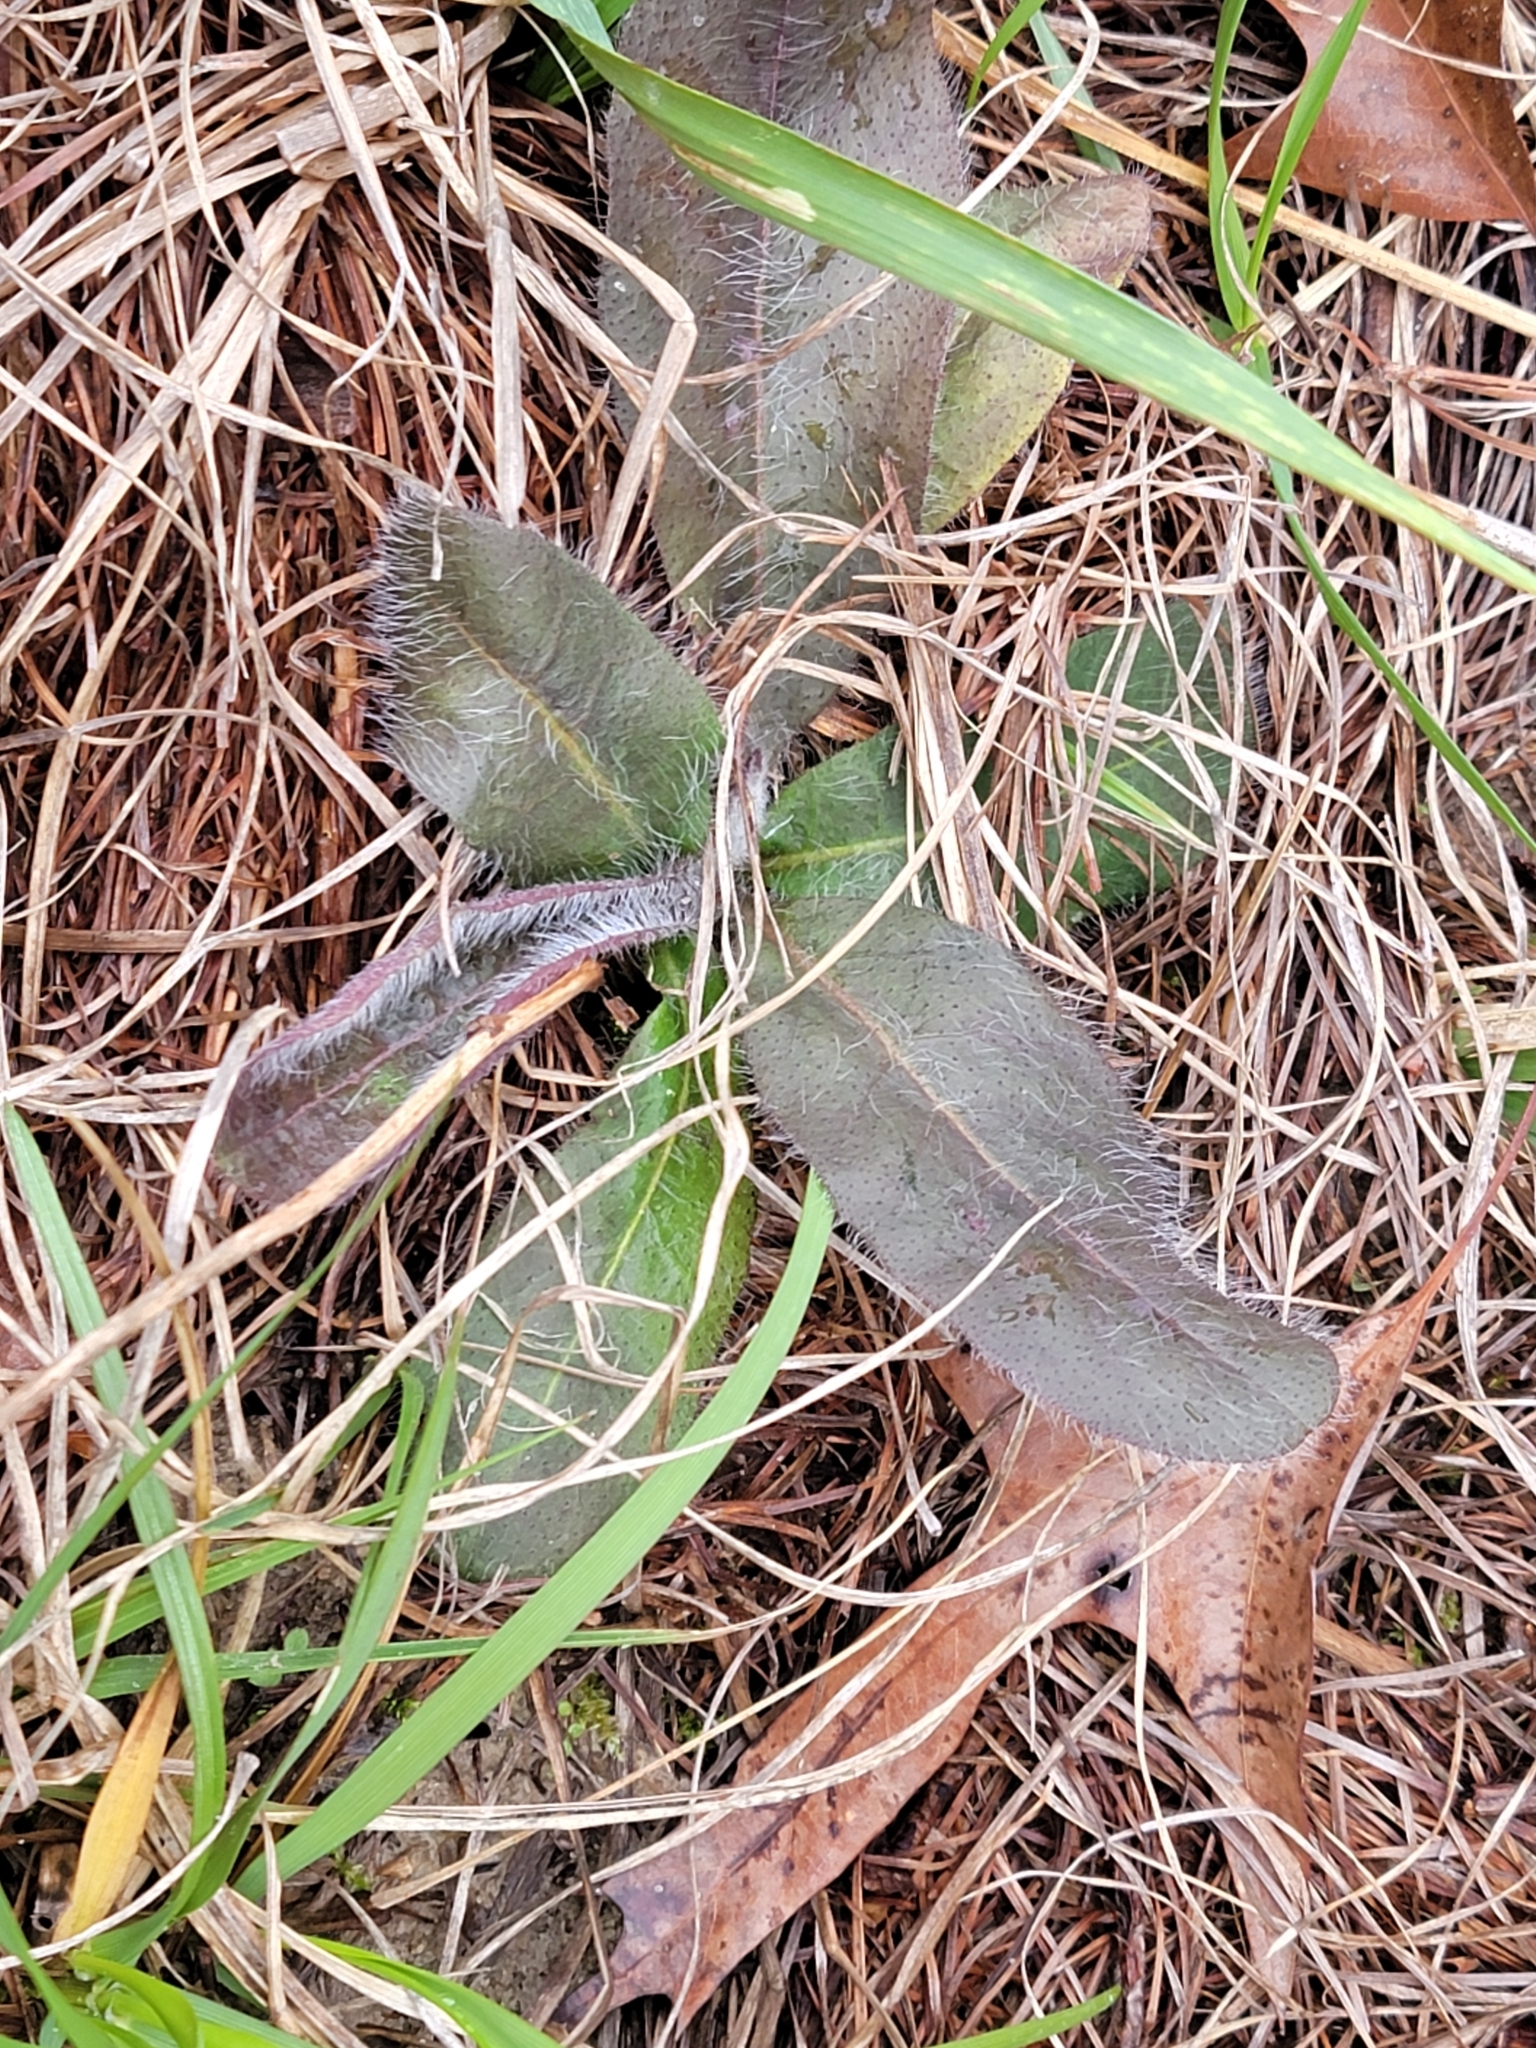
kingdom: Plantae
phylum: Tracheophyta
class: Magnoliopsida
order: Asterales
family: Asteraceae
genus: Hieracium
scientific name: Hieracium gronovii
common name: Beaked hawkweed
